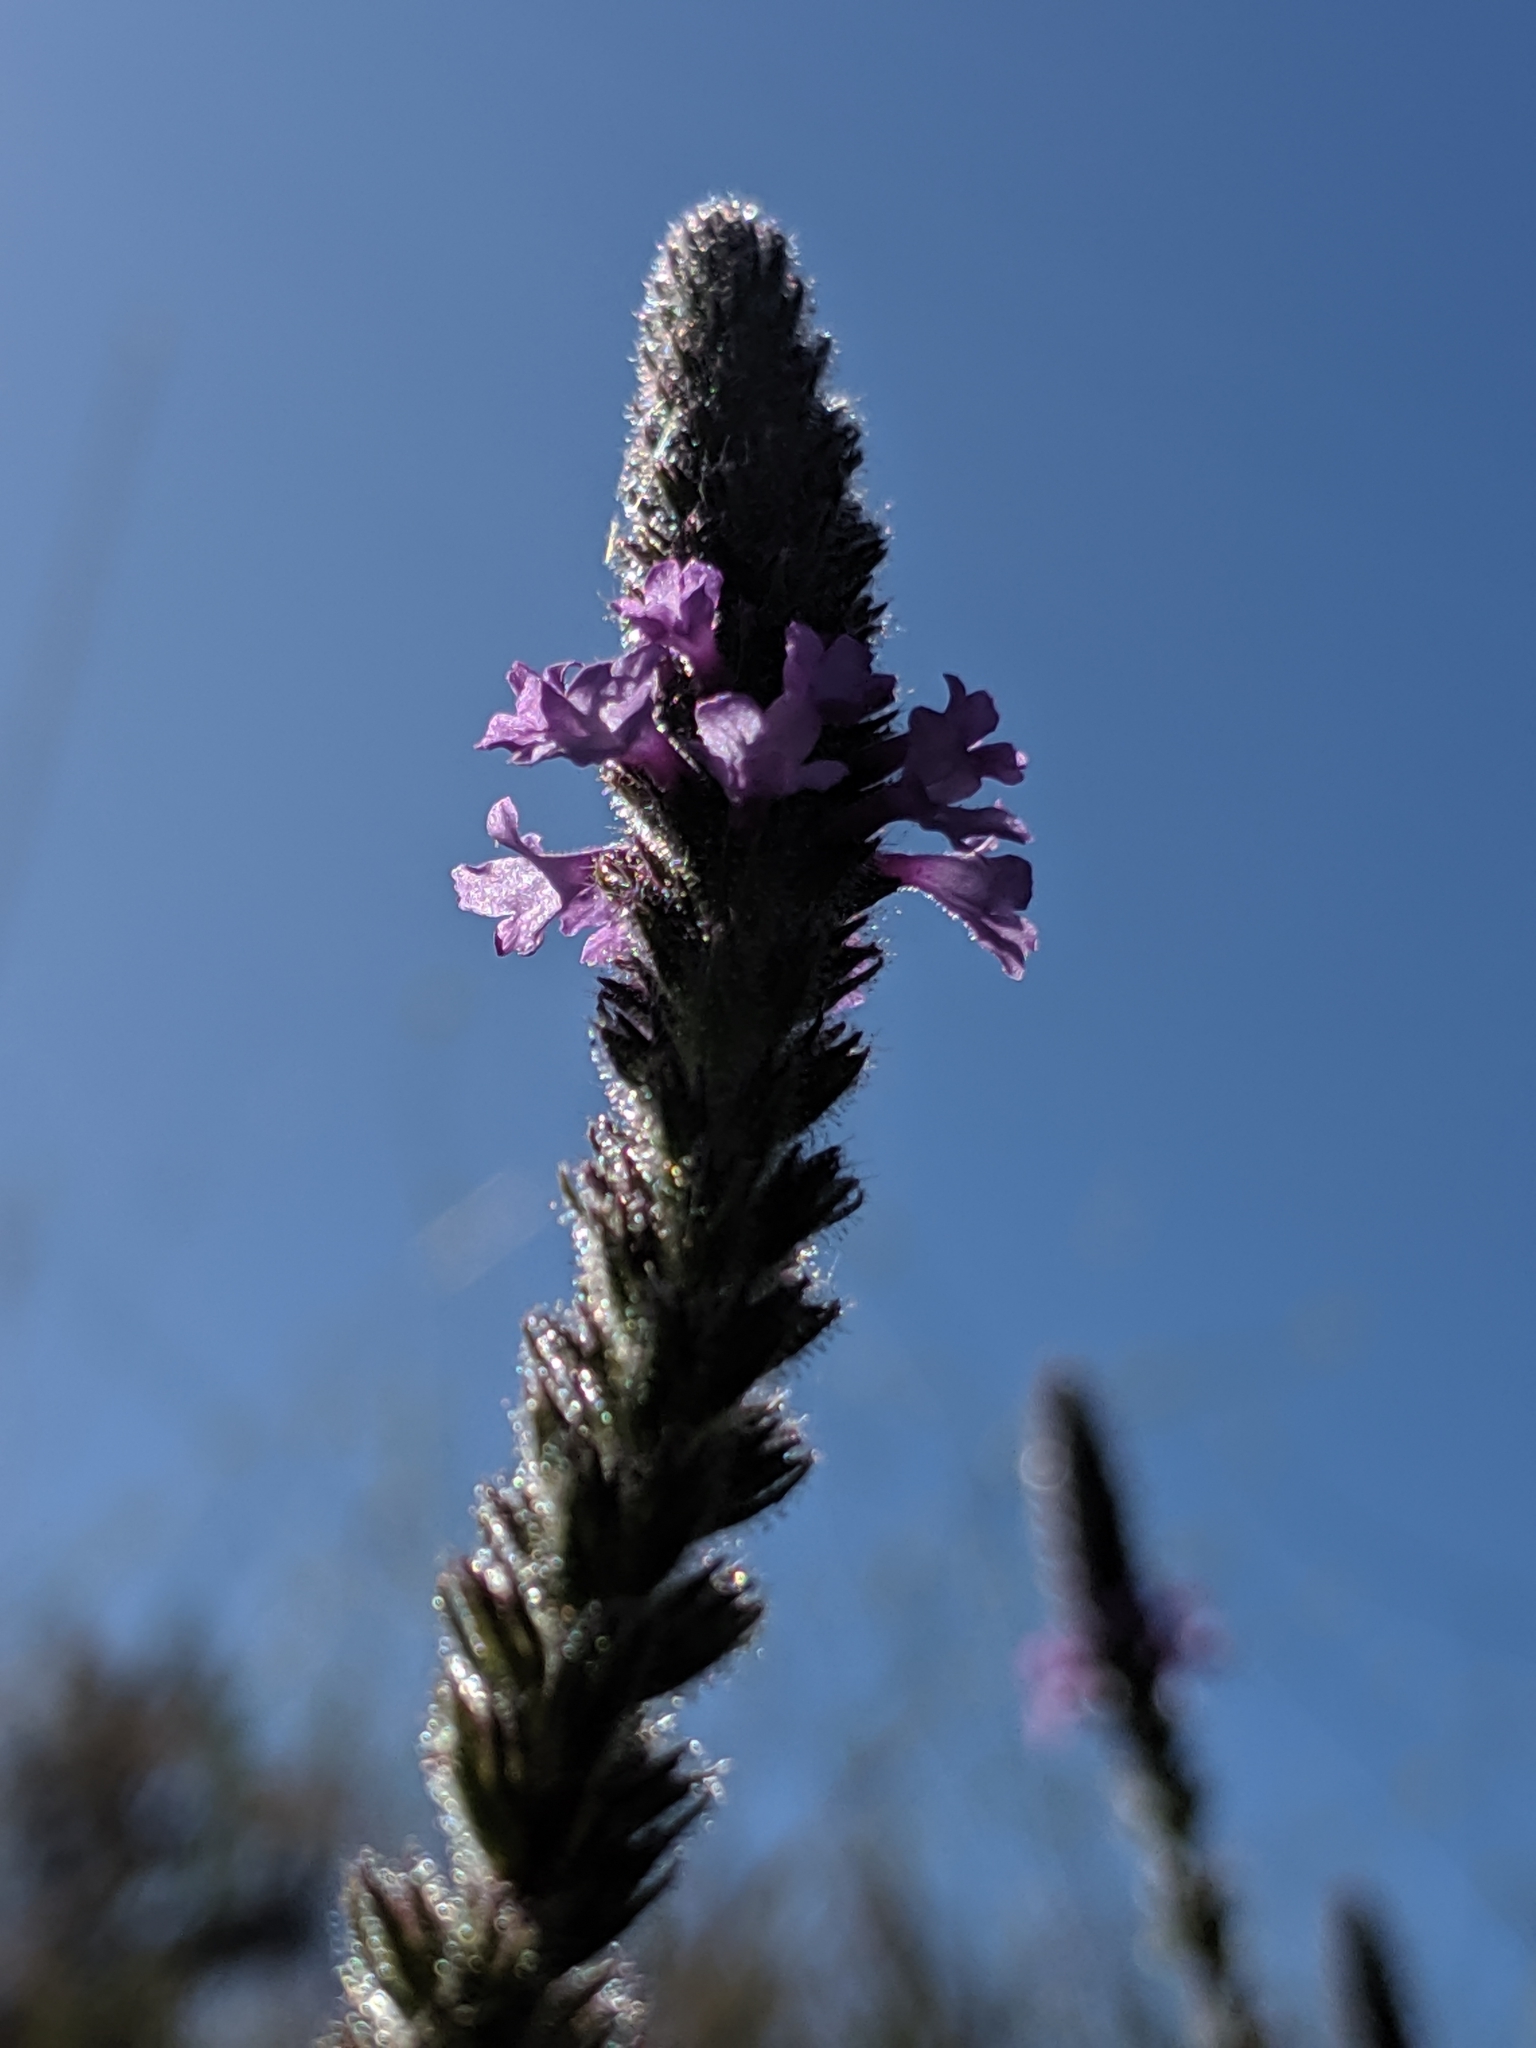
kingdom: Plantae
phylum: Tracheophyta
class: Magnoliopsida
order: Lamiales
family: Verbenaceae
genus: Verbena
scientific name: Verbena lasiostachys
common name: Vervain
